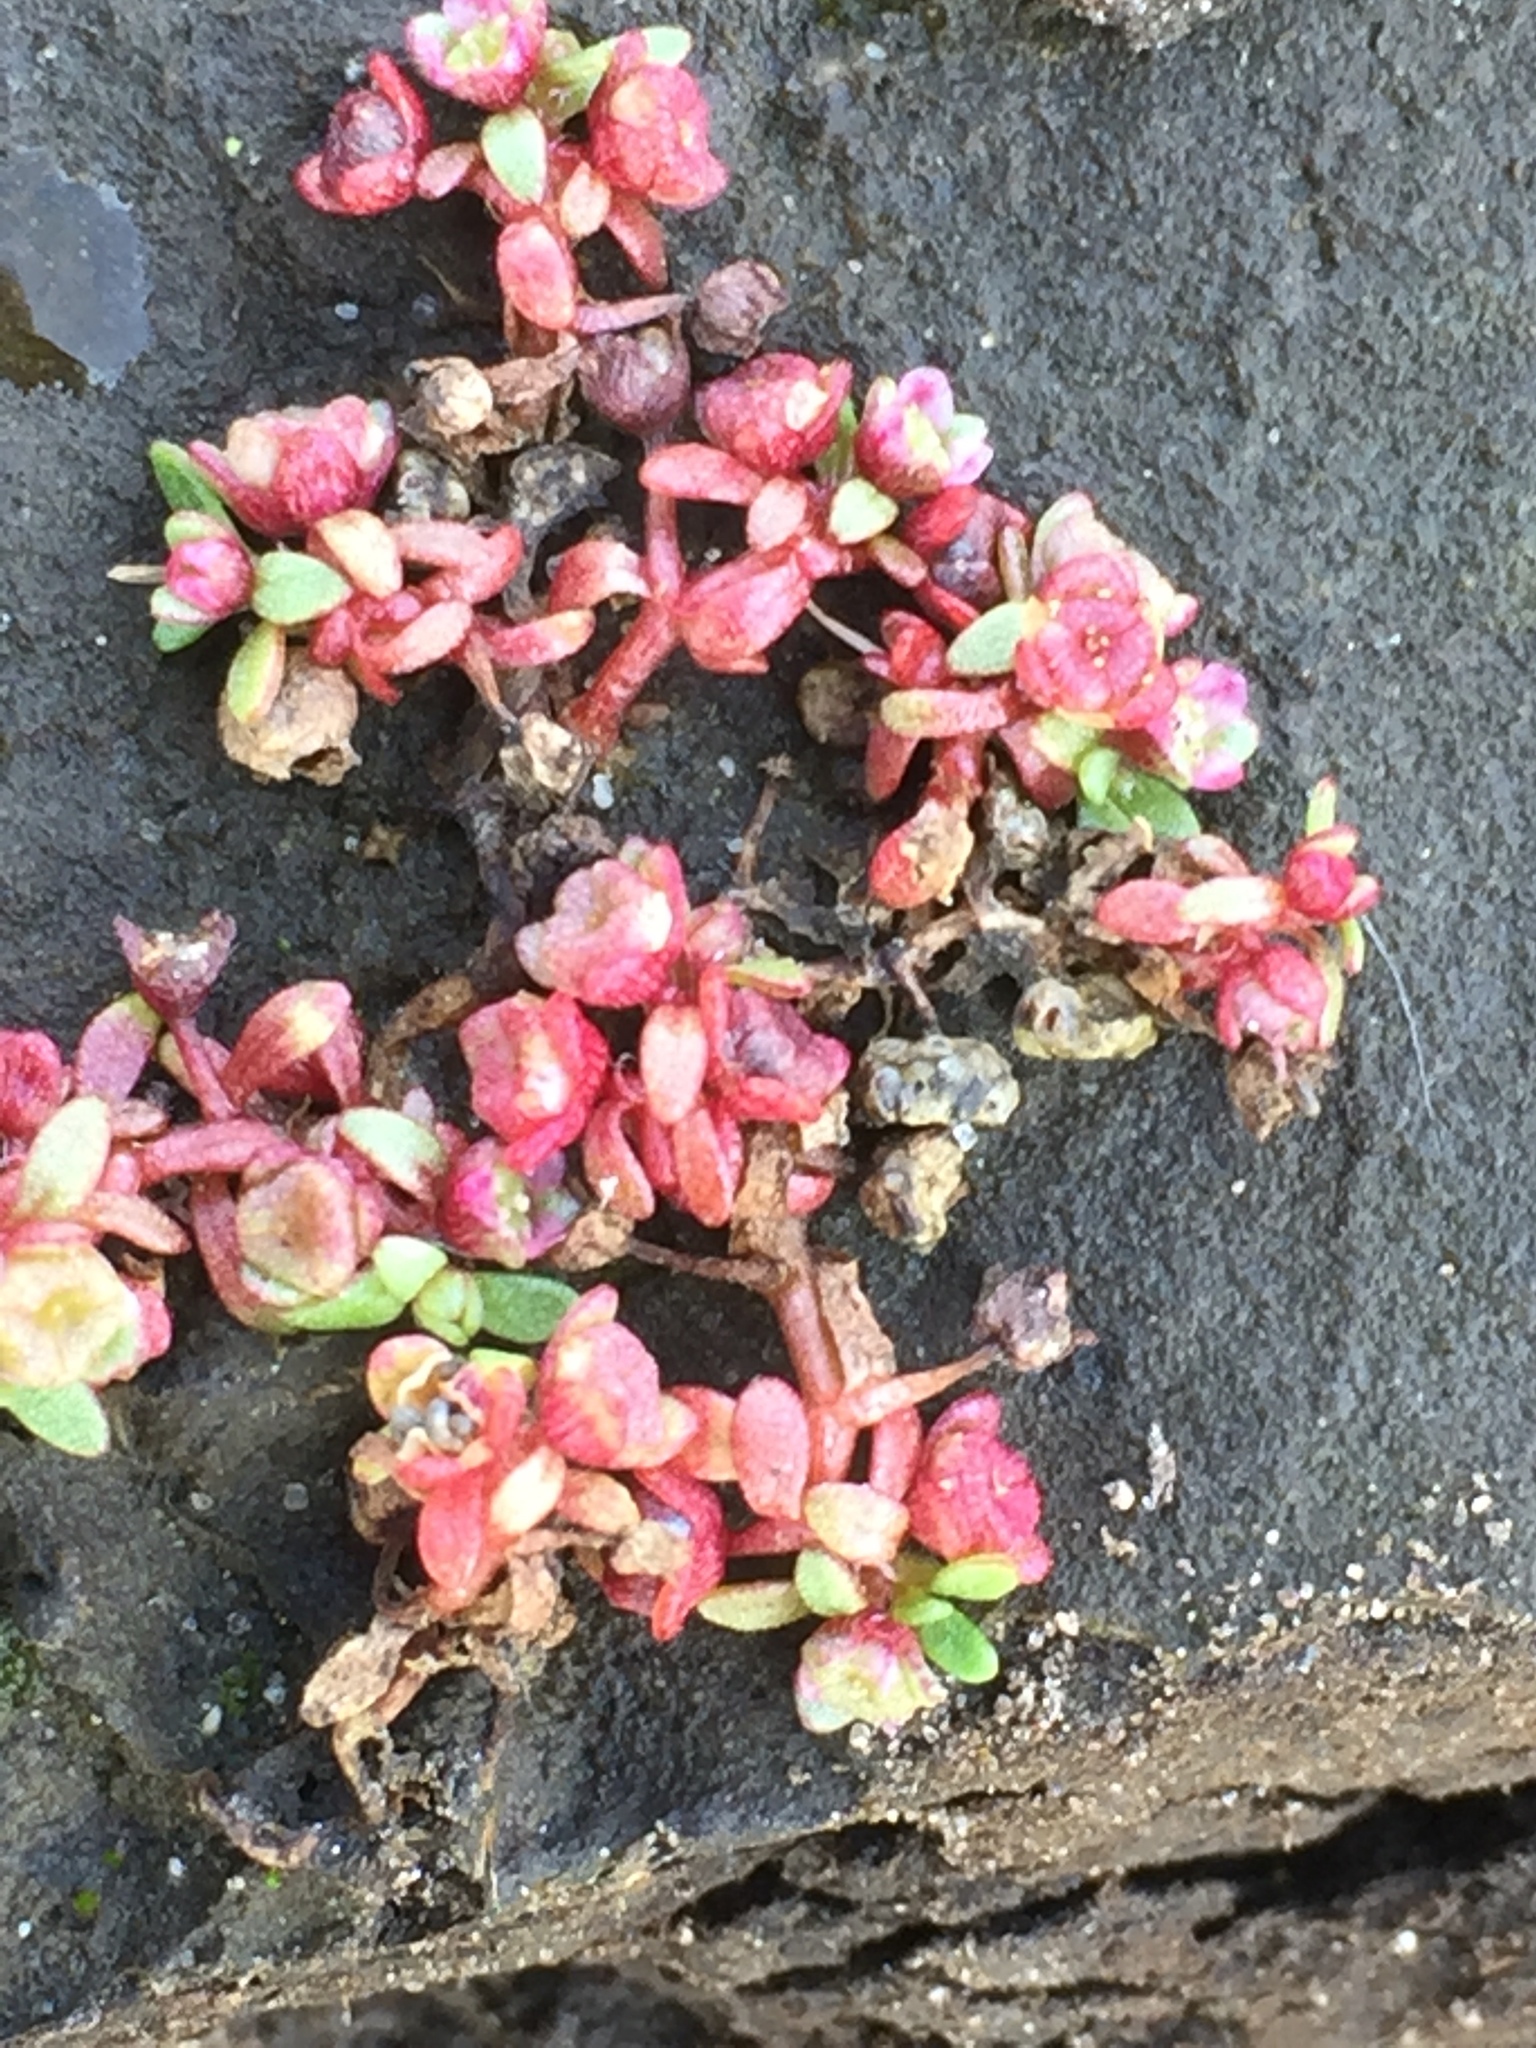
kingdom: Plantae
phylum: Tracheophyta
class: Magnoliopsida
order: Malpighiales
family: Elatinaceae
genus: Elatine
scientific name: Elatine hexandra
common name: Six-stamened waterwort
